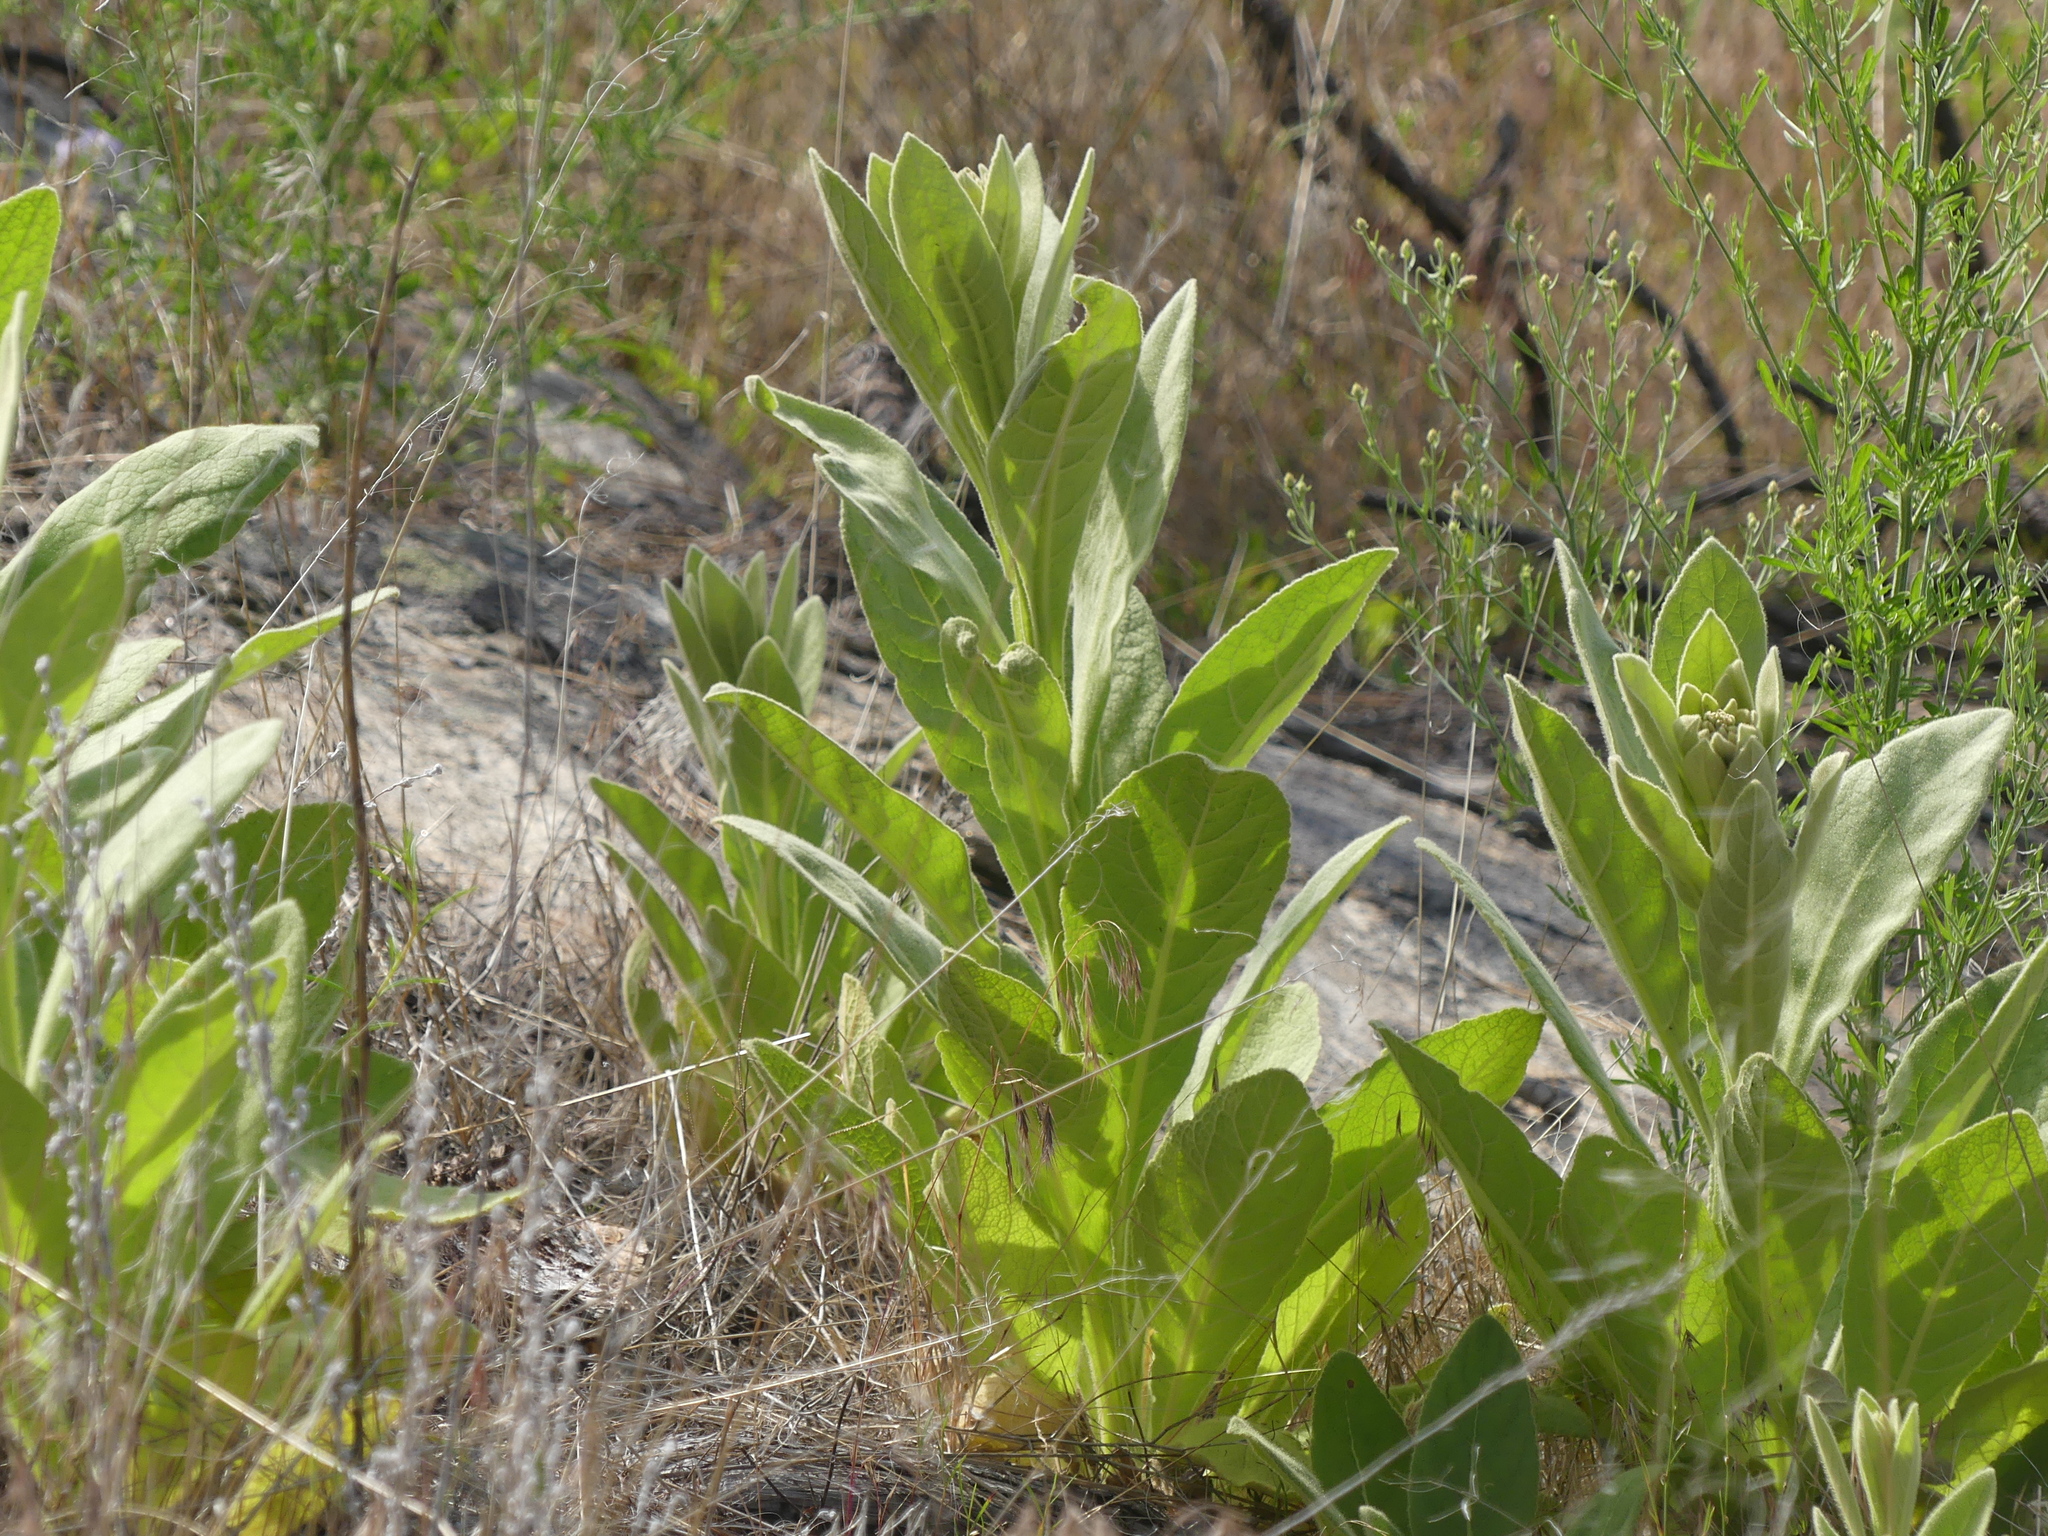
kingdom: Plantae
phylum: Tracheophyta
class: Magnoliopsida
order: Lamiales
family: Scrophulariaceae
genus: Verbascum
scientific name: Verbascum thapsus
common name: Common mullein
